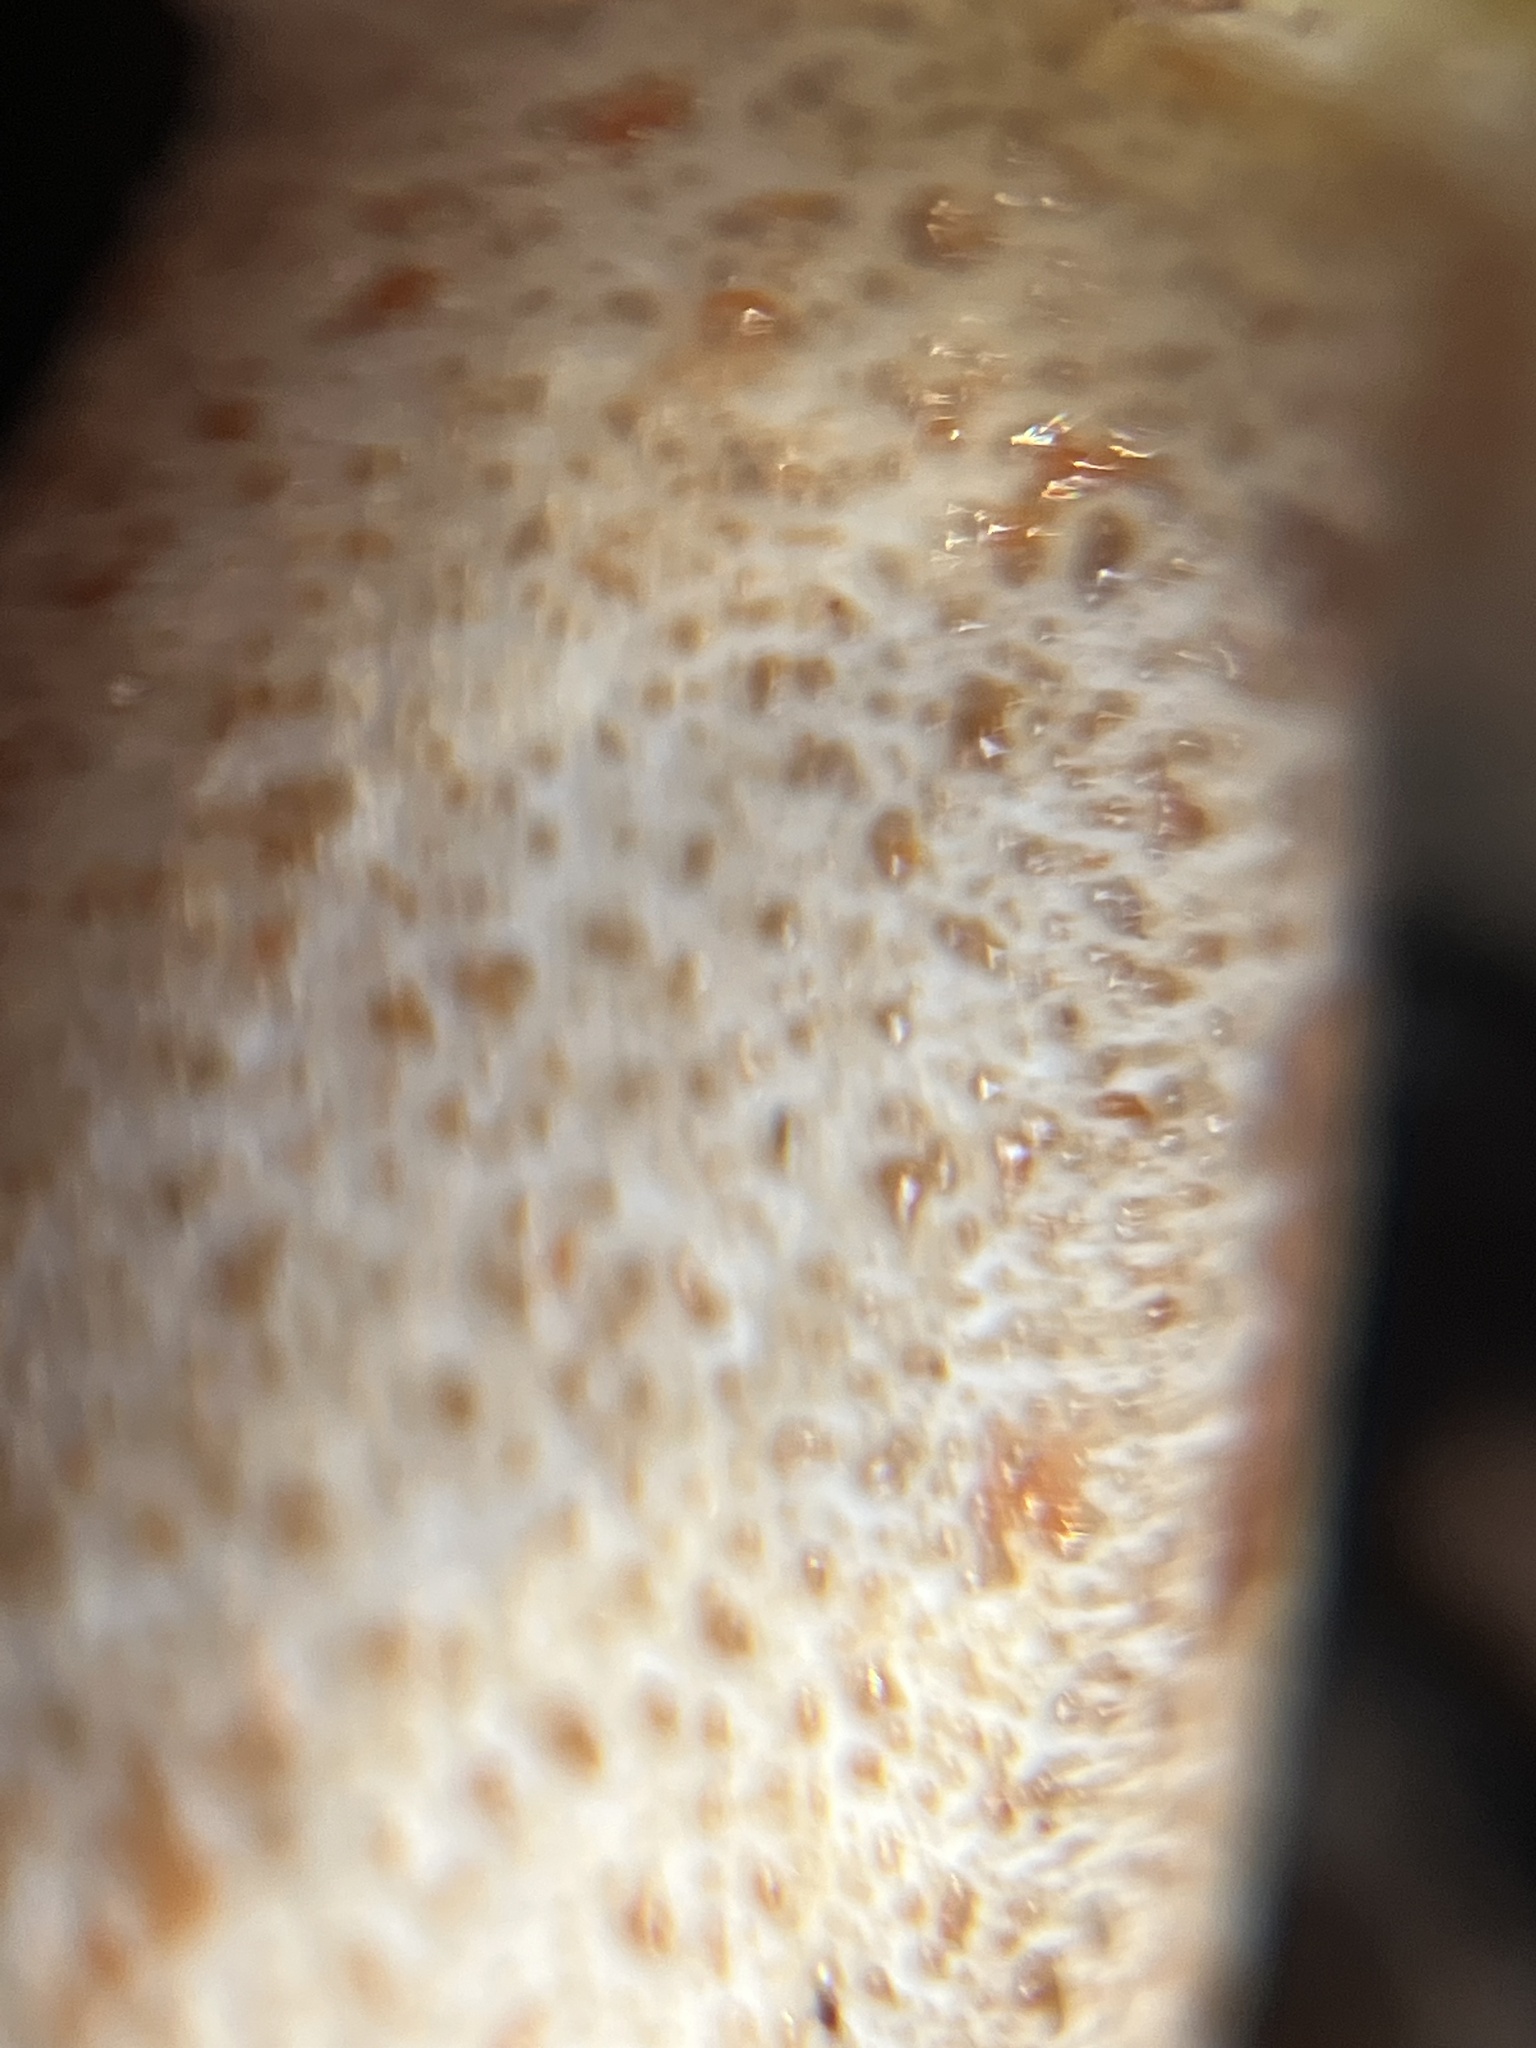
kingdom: Fungi
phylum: Basidiomycota
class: Agaricomycetes
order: Boletales
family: Suillaceae
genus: Suillus
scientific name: Suillus pungens
